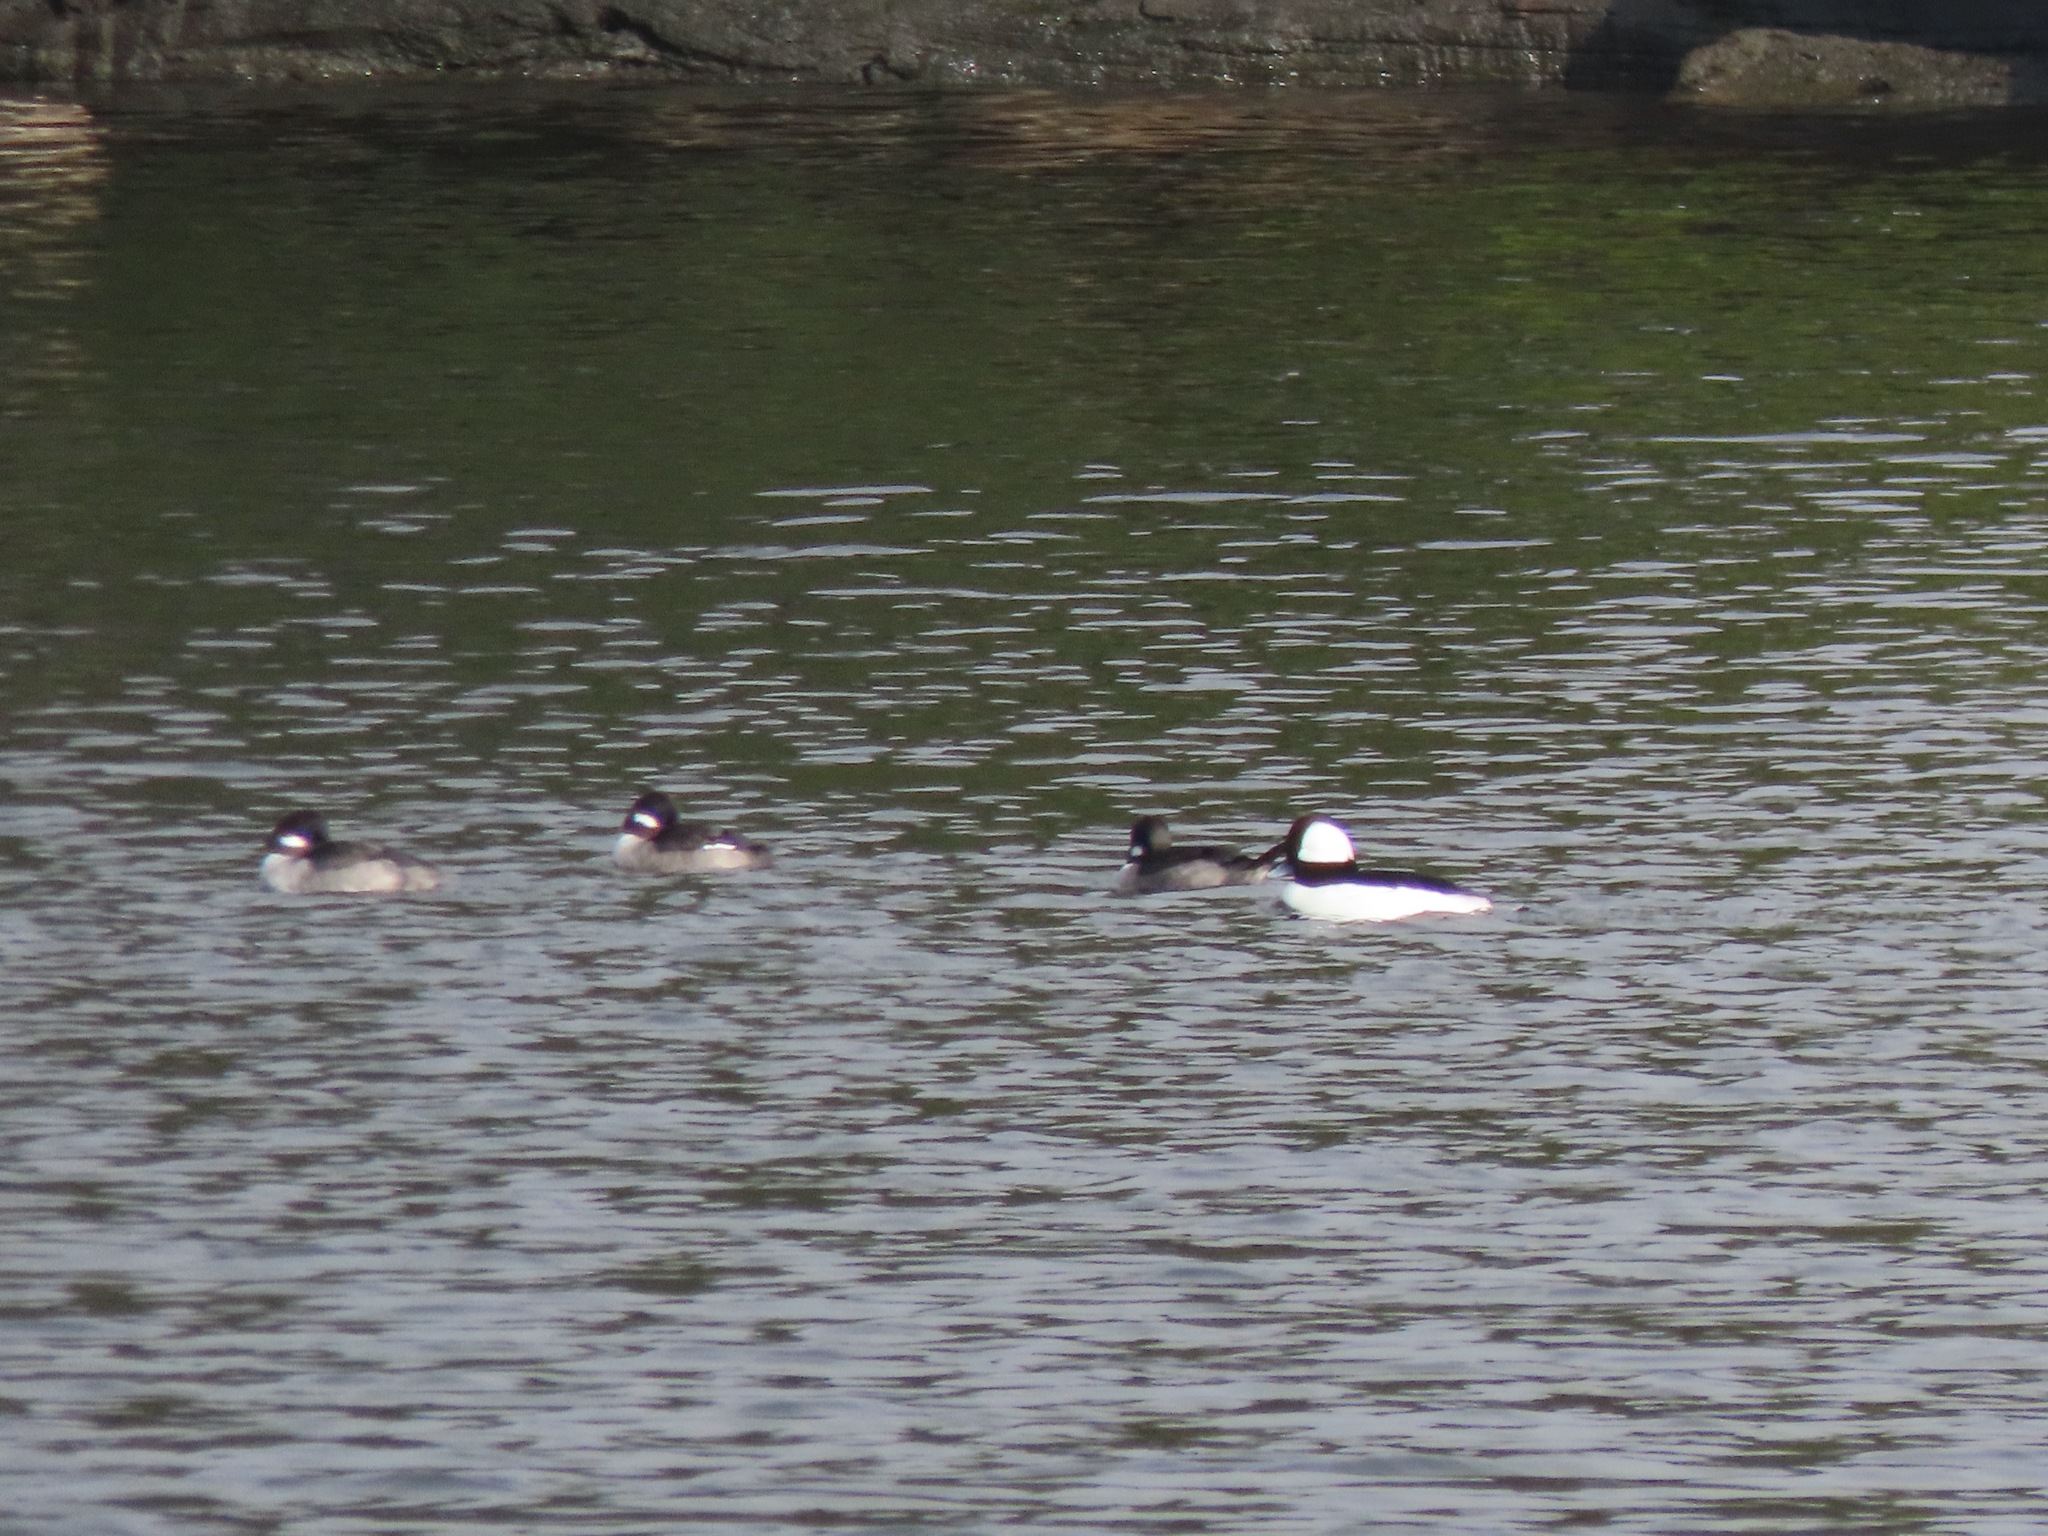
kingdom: Animalia
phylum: Chordata
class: Aves
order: Anseriformes
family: Anatidae
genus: Bucephala
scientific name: Bucephala albeola
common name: Bufflehead
